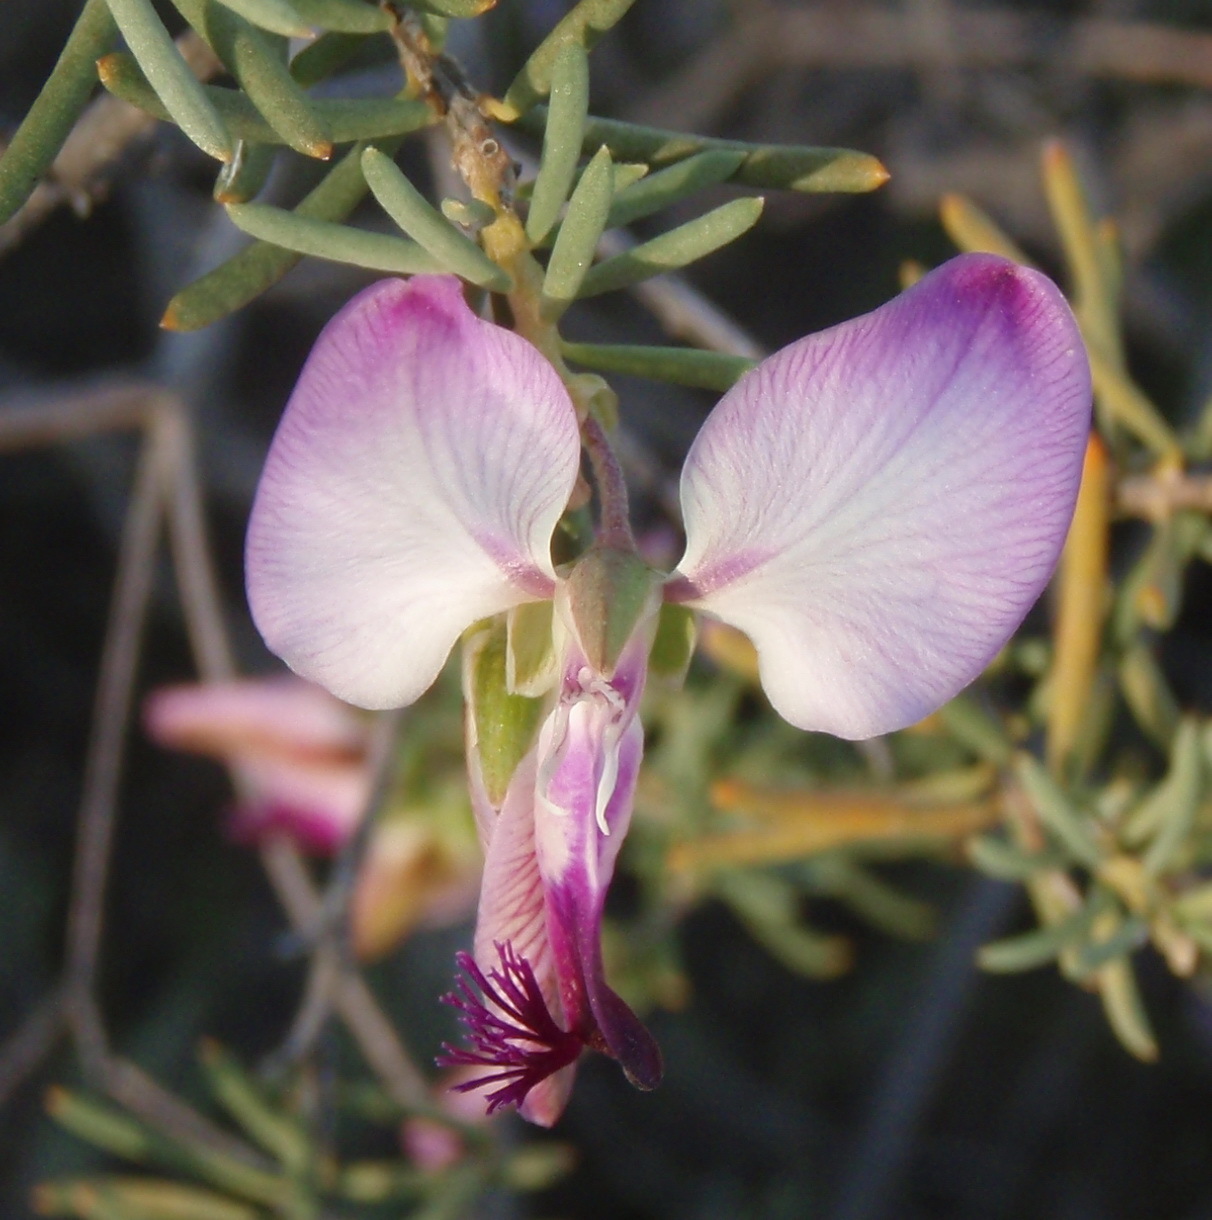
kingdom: Plantae
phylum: Tracheophyta
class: Magnoliopsida
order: Fabales
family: Polygalaceae
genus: Polygala
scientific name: Polygala myrtifolia
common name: Myrtle-leaf milkwort
